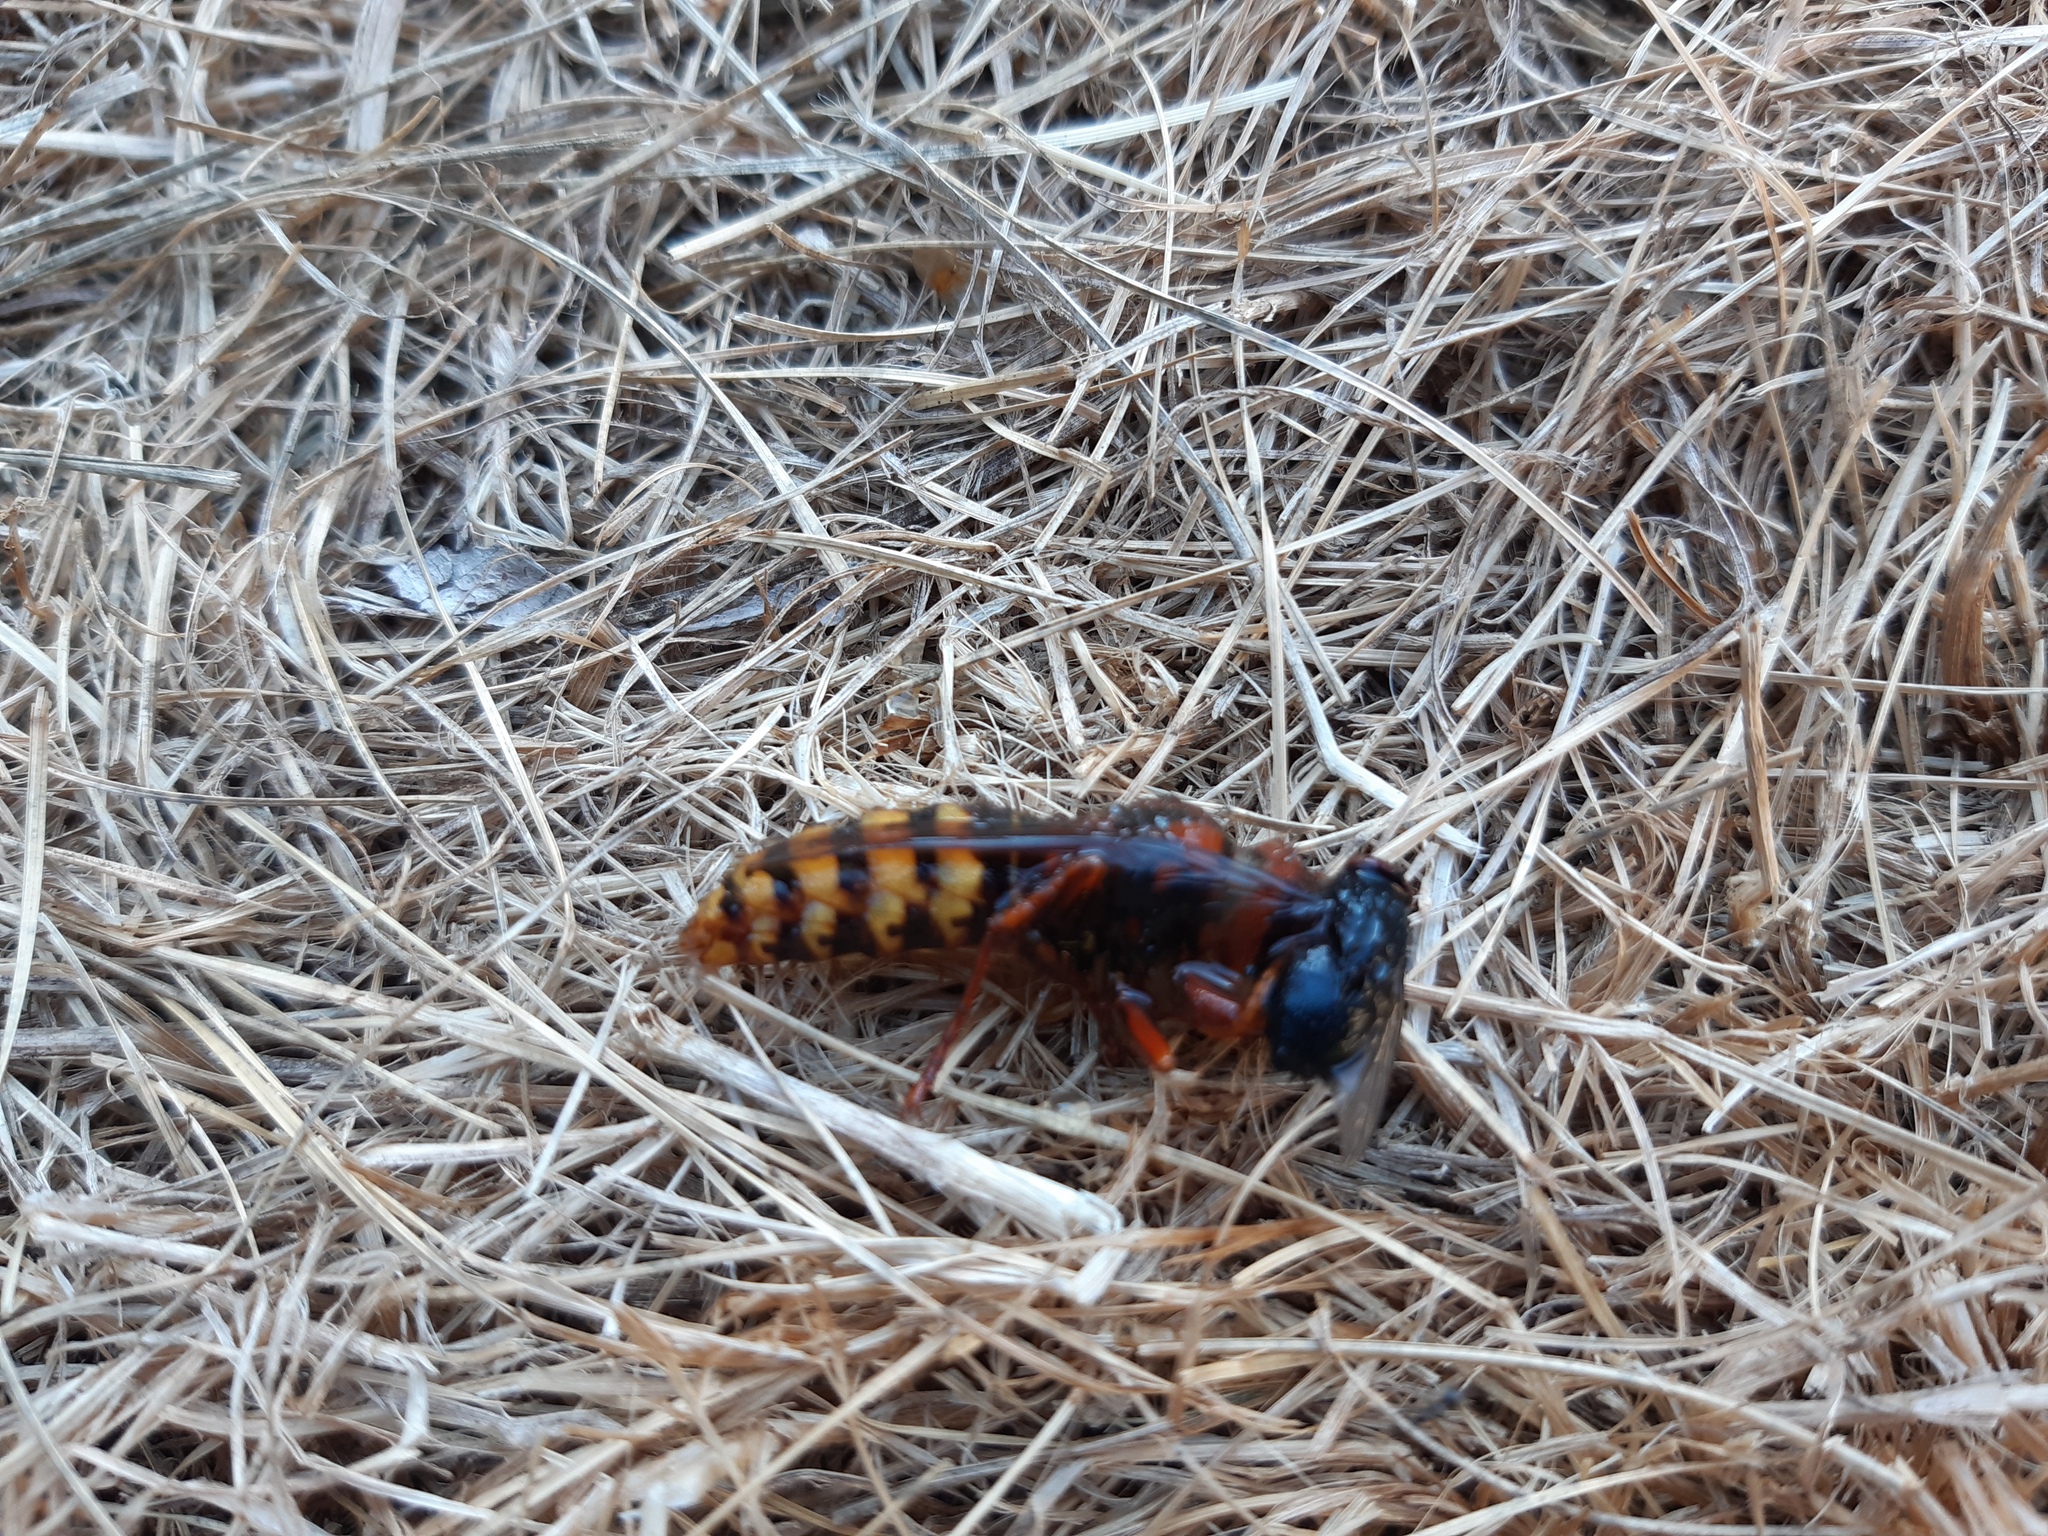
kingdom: Animalia
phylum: Arthropoda
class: Insecta
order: Hymenoptera
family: Vespidae
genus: Vespa
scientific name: Vespa crabro
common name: Hornet
